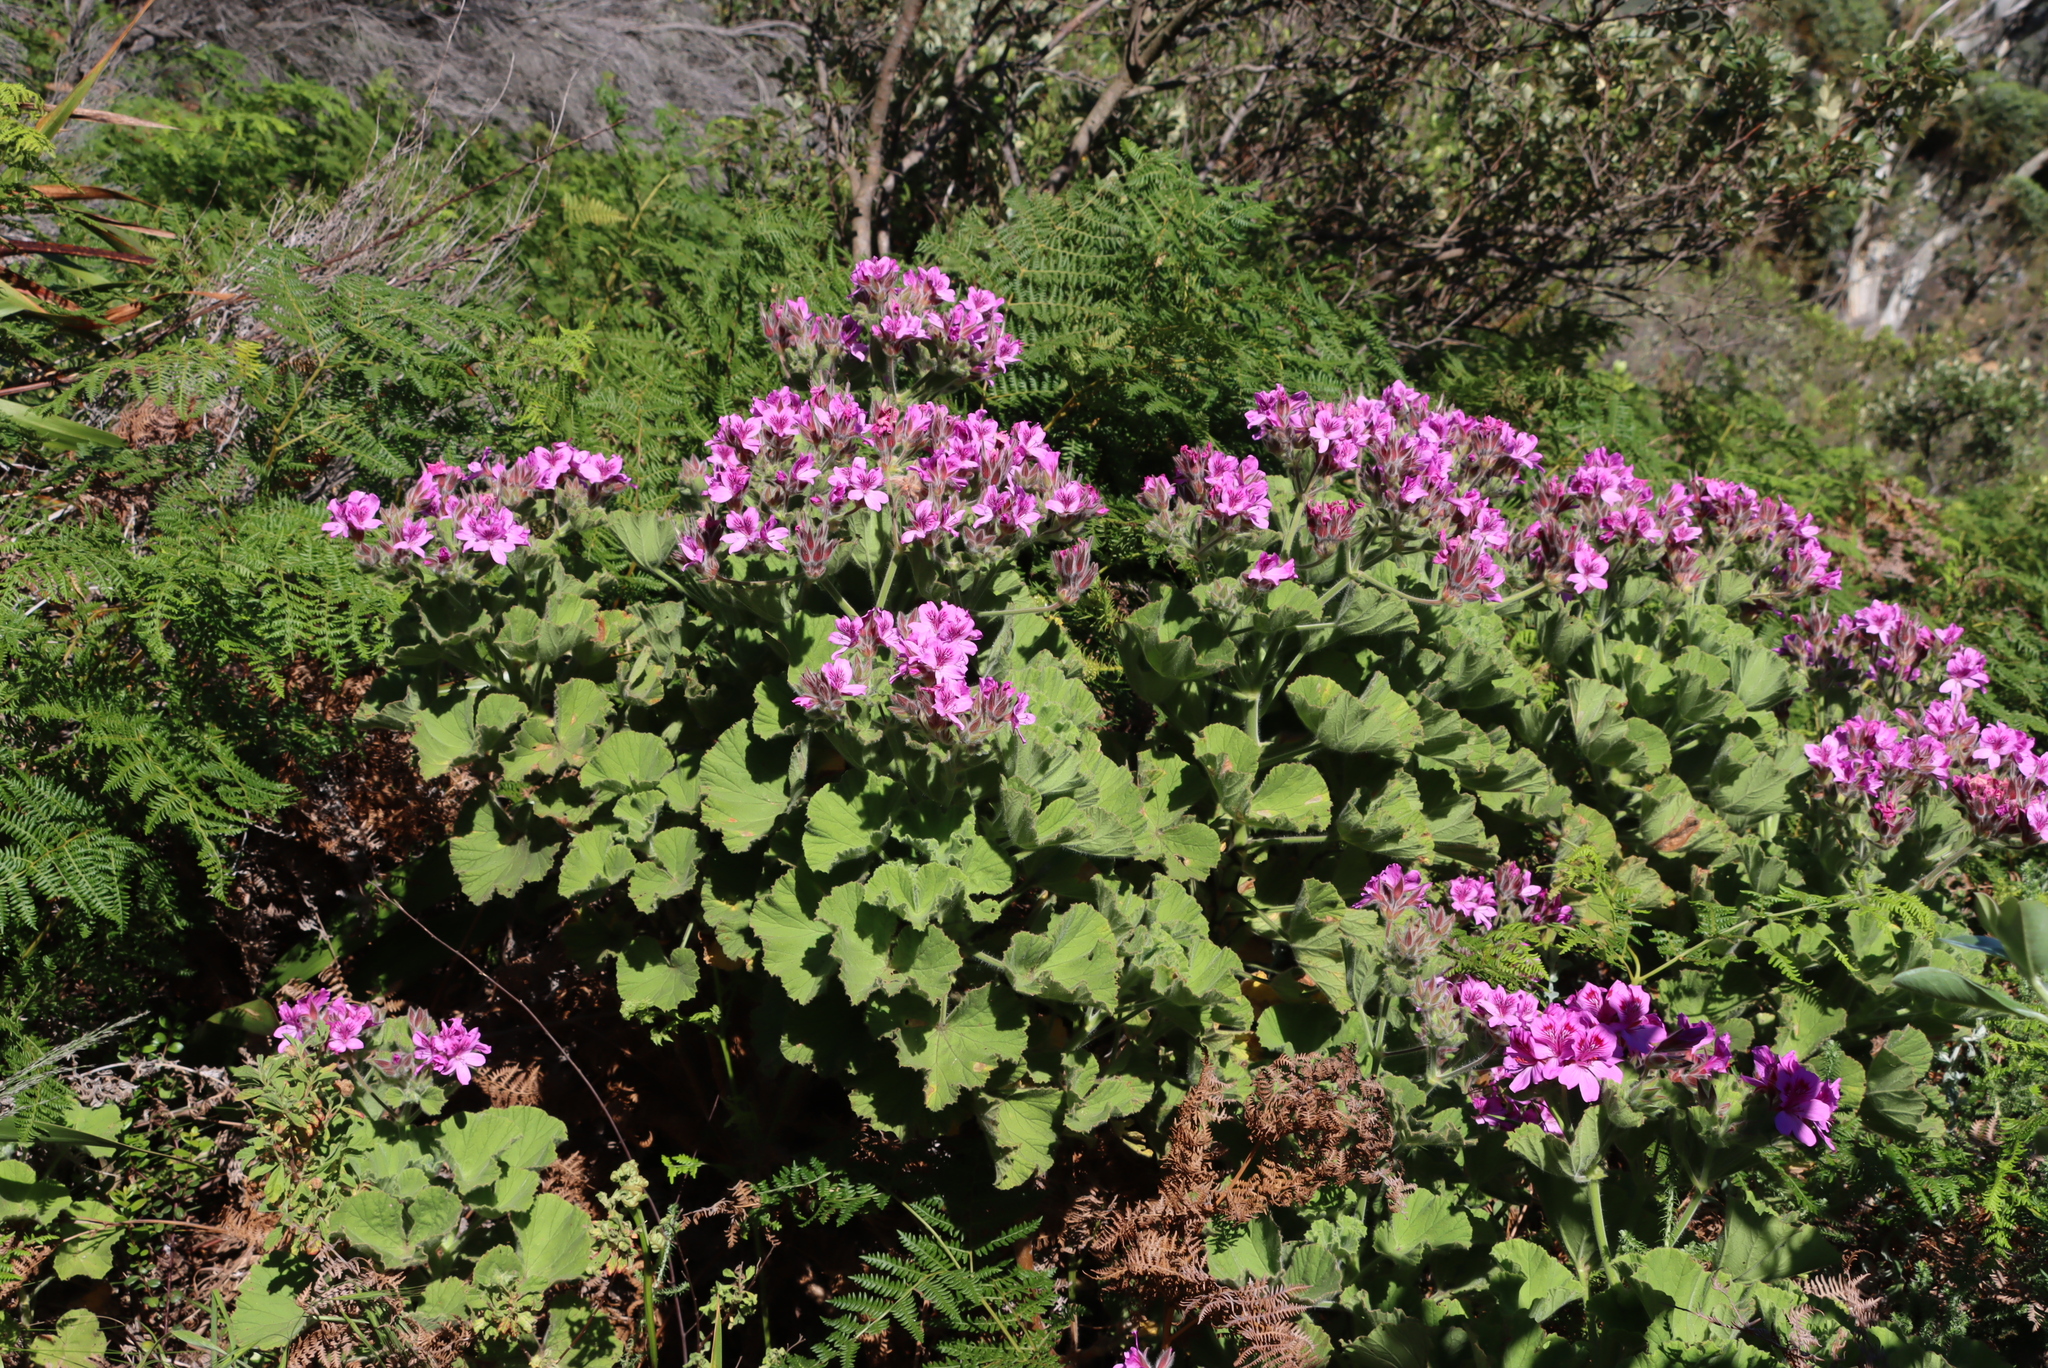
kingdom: Plantae
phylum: Tracheophyta
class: Magnoliopsida
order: Geraniales
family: Geraniaceae
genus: Pelargonium
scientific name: Pelargonium cucullatum
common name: Tree pelargonium
